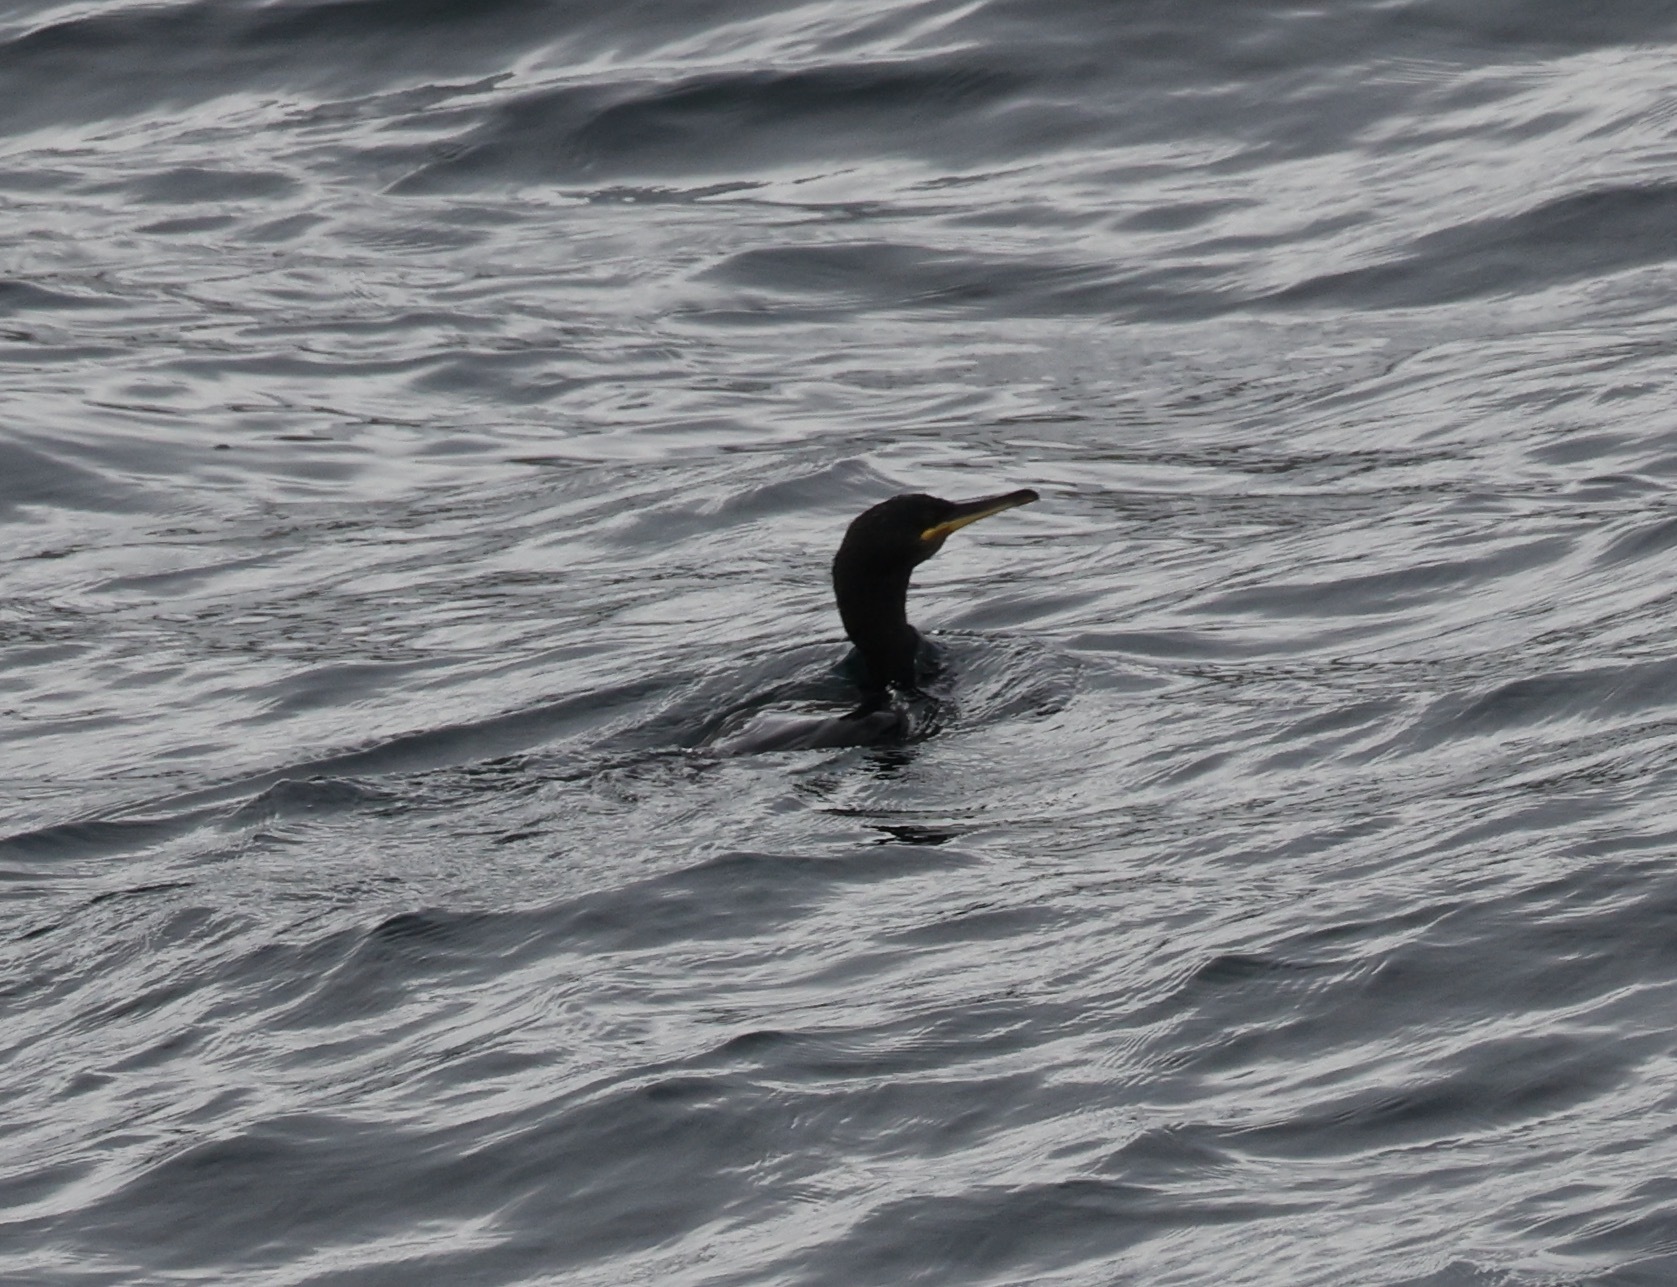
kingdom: Animalia
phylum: Chordata
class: Aves
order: Suliformes
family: Phalacrocoracidae
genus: Phalacrocorax
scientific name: Phalacrocorax aristotelis
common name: European shag
